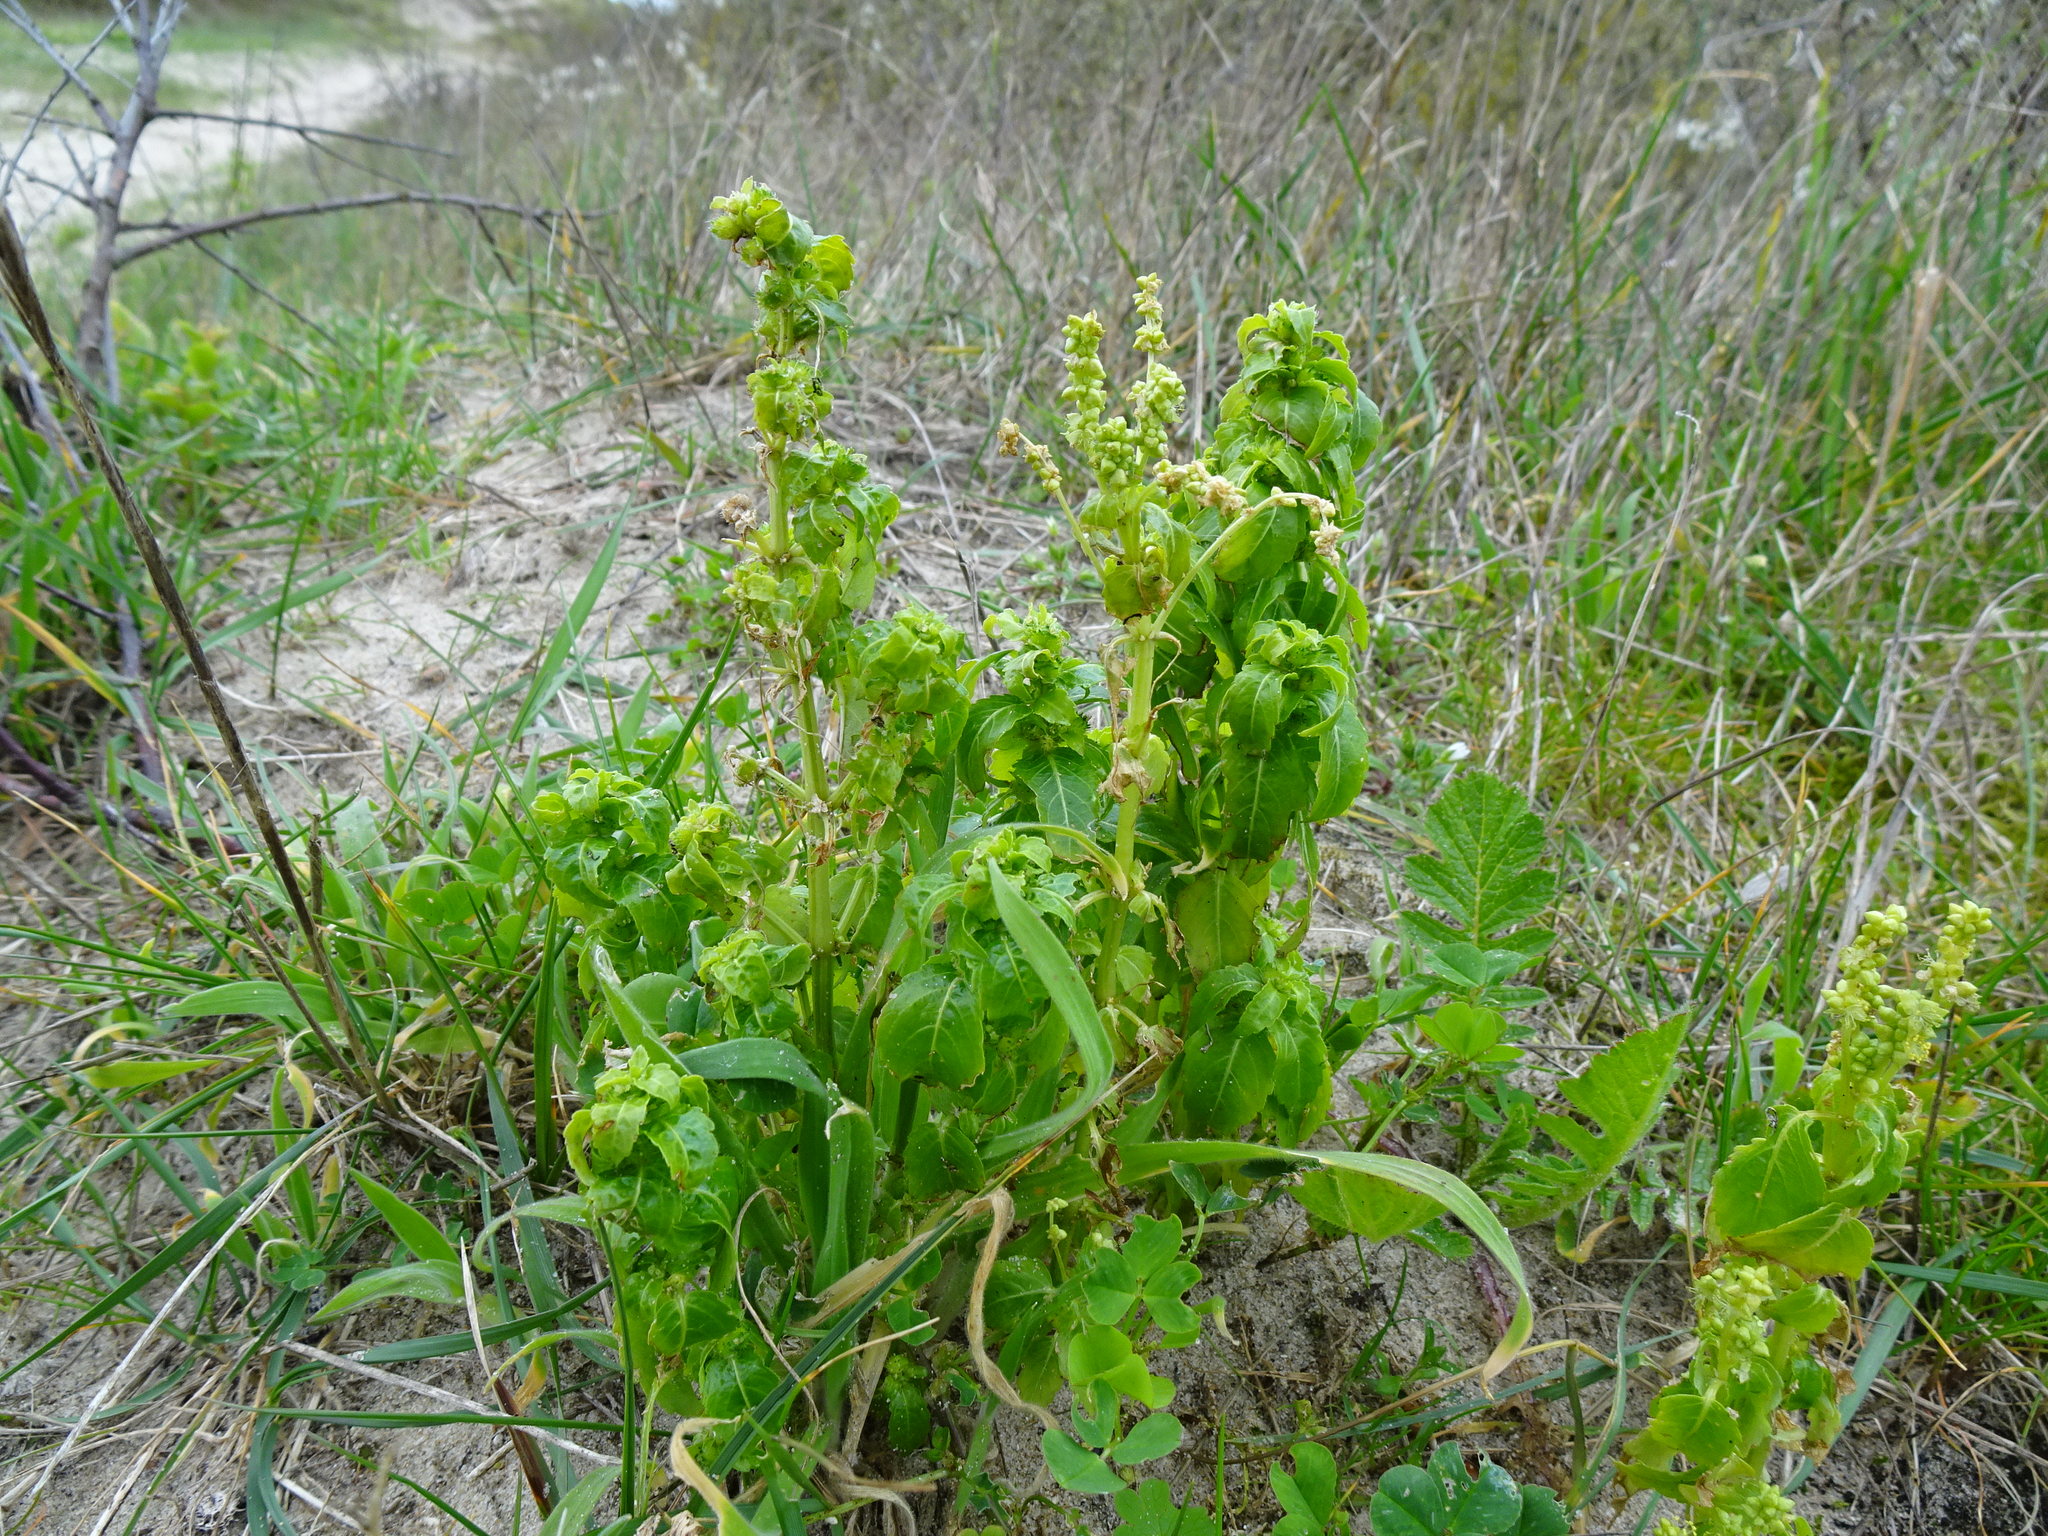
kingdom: Plantae
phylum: Tracheophyta
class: Magnoliopsida
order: Malpighiales
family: Euphorbiaceae
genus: Mercurialis
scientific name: Mercurialis annua
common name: Annual mercury
